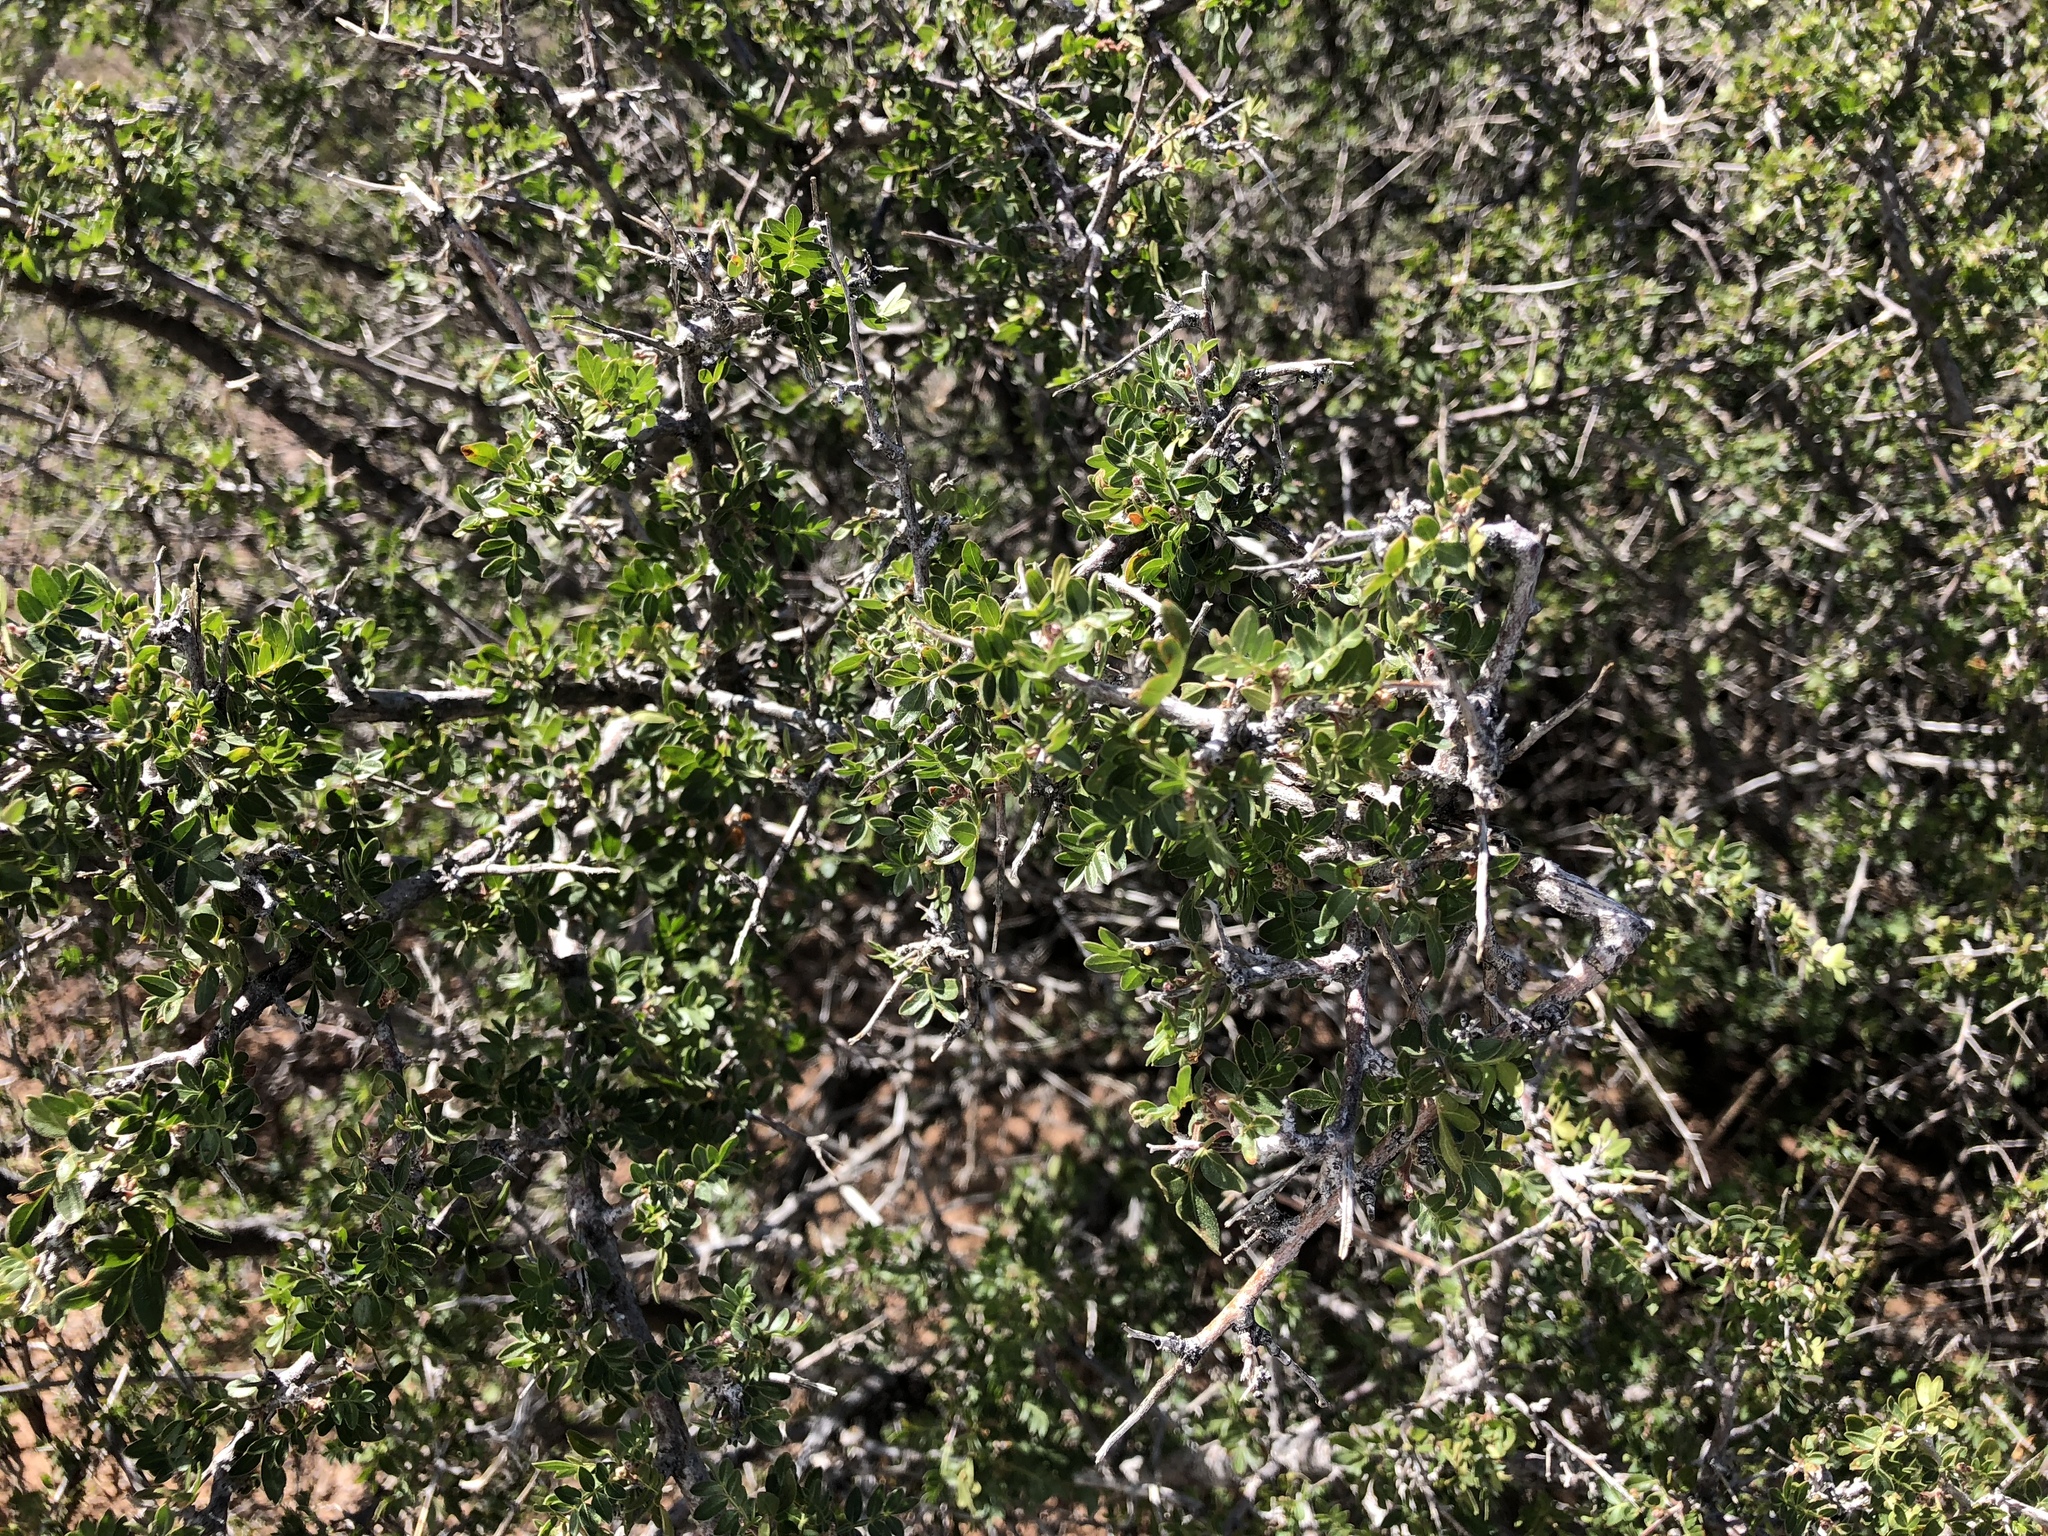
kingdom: Plantae
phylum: Tracheophyta
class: Magnoliopsida
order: Rosales
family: Rhamnaceae
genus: Condalia
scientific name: Condalia warnockii
